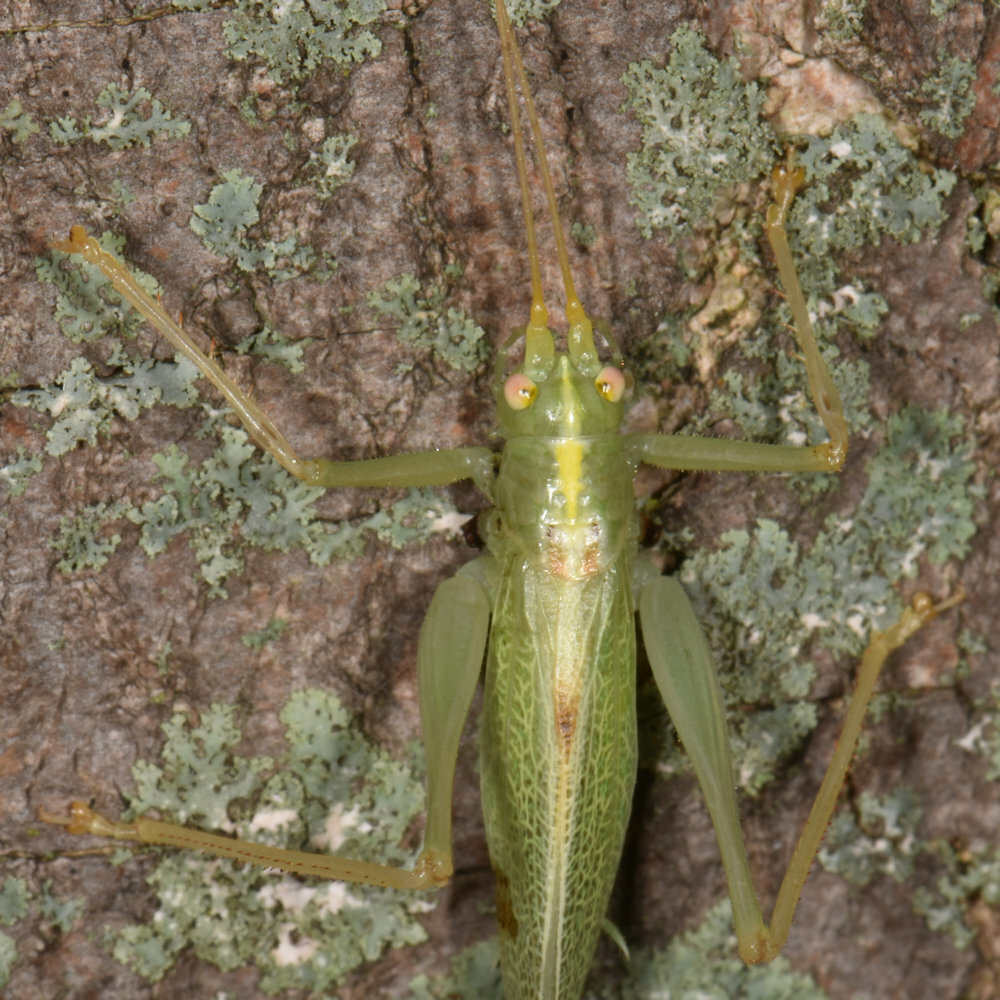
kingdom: Animalia
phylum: Arthropoda
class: Insecta
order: Orthoptera
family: Tettigoniidae
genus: Meconema
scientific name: Meconema thalassinum
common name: Oak bush-cricket
